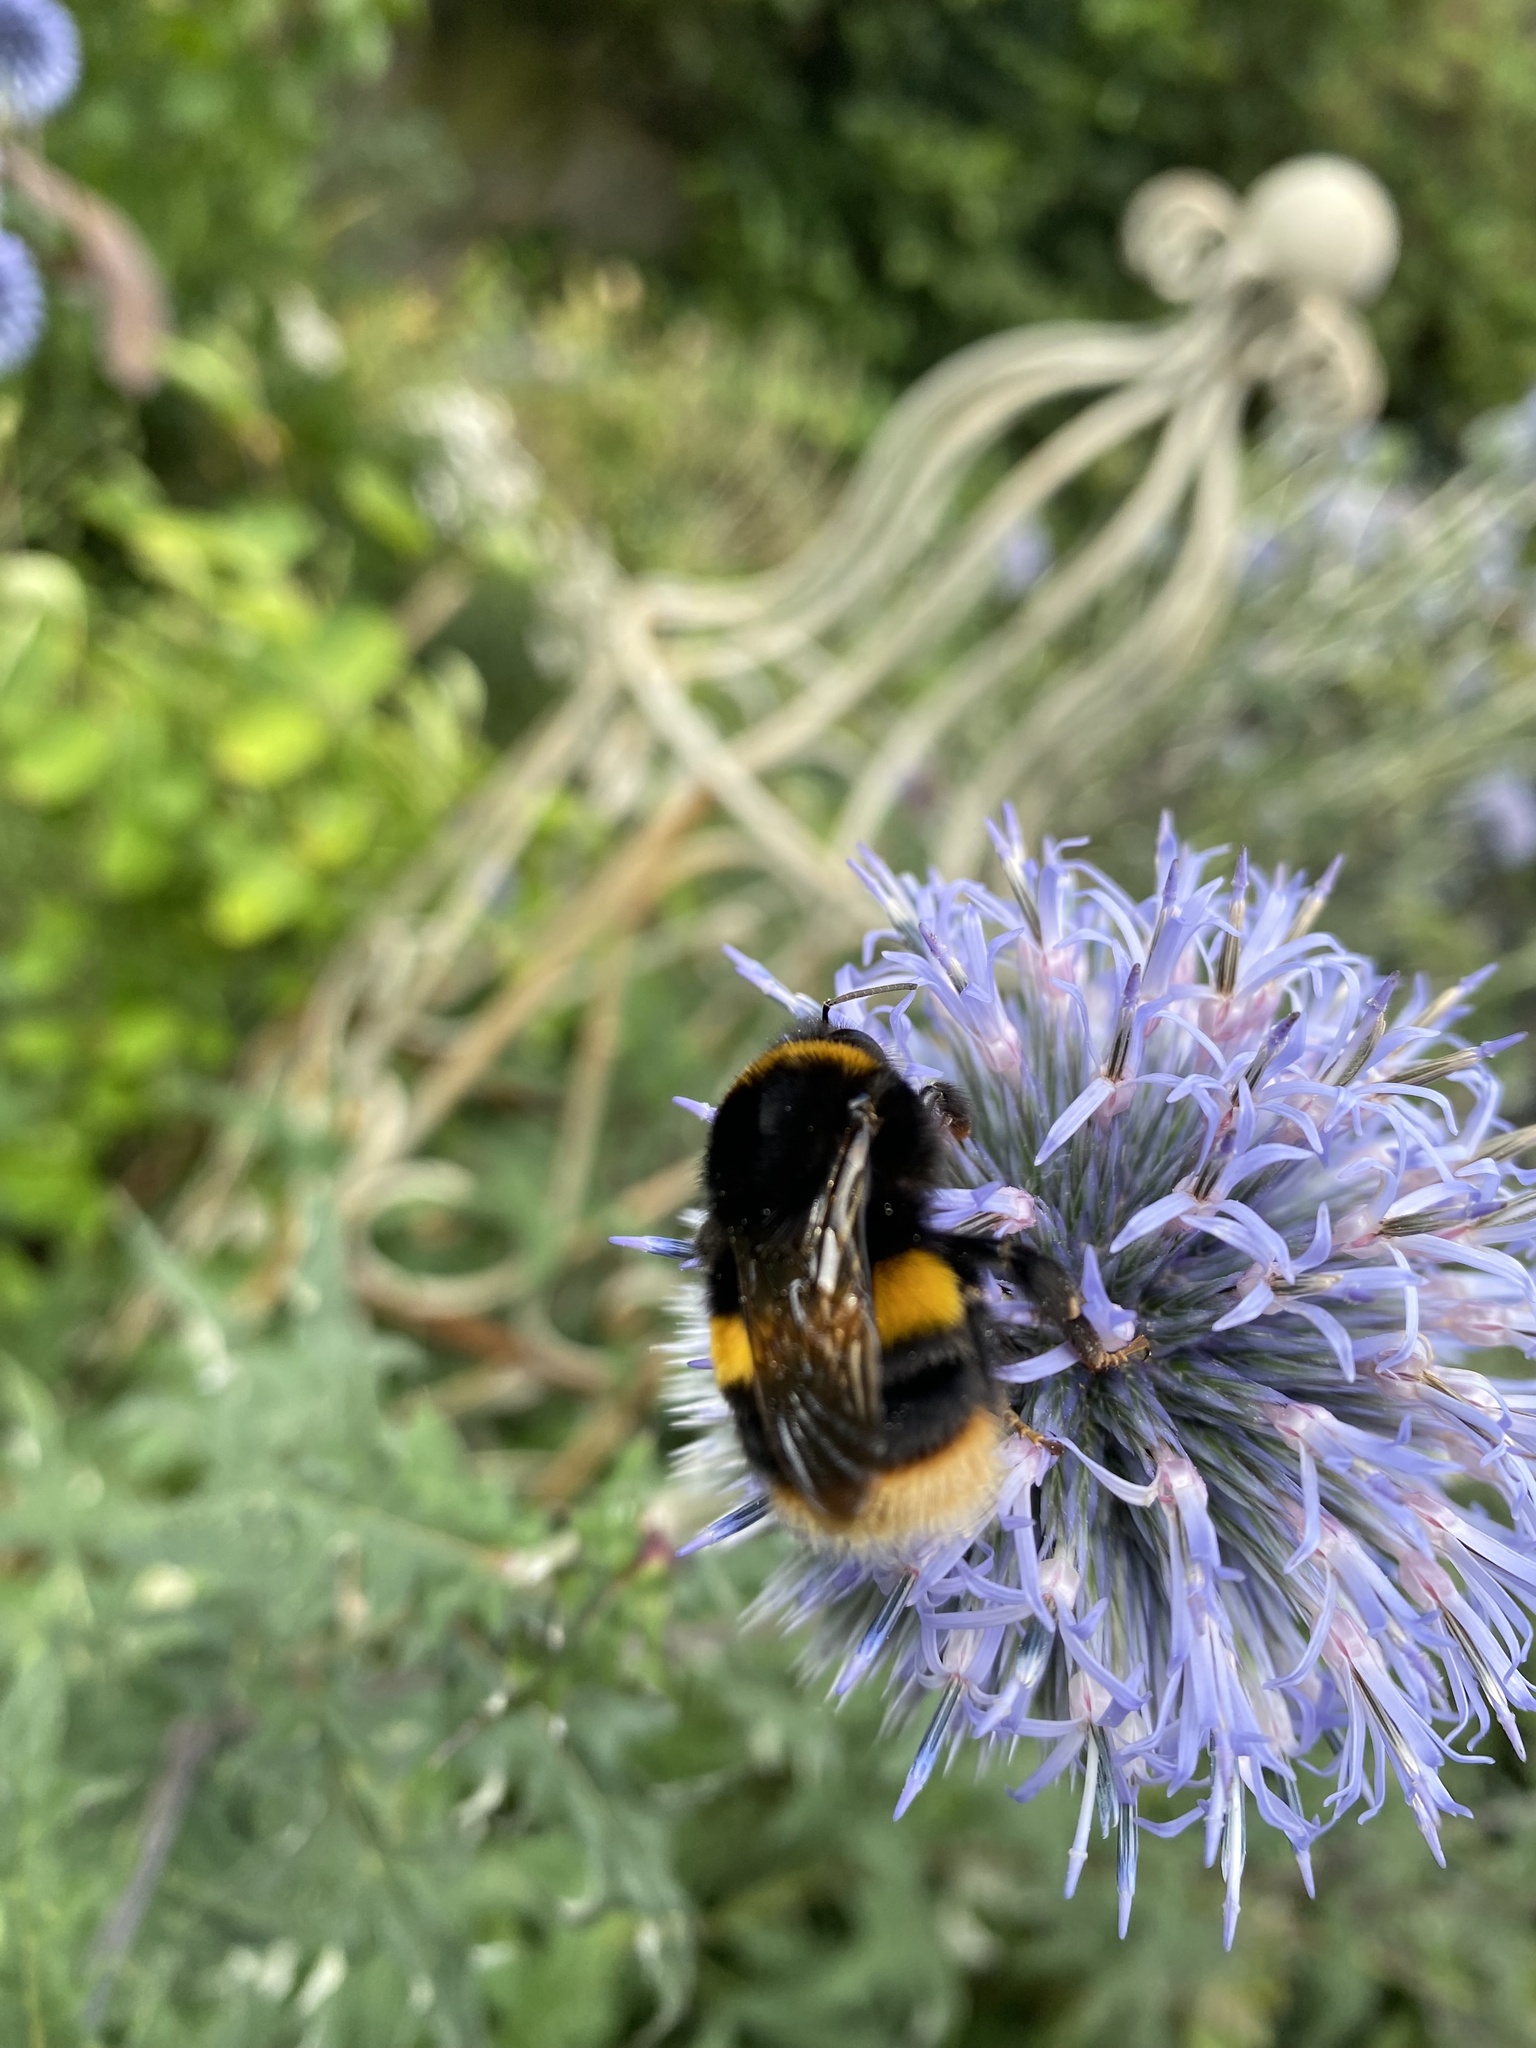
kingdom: Animalia
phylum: Arthropoda
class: Insecta
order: Hymenoptera
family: Apidae
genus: Bombus
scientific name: Bombus terrestris
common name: Buff-tailed bumblebee
